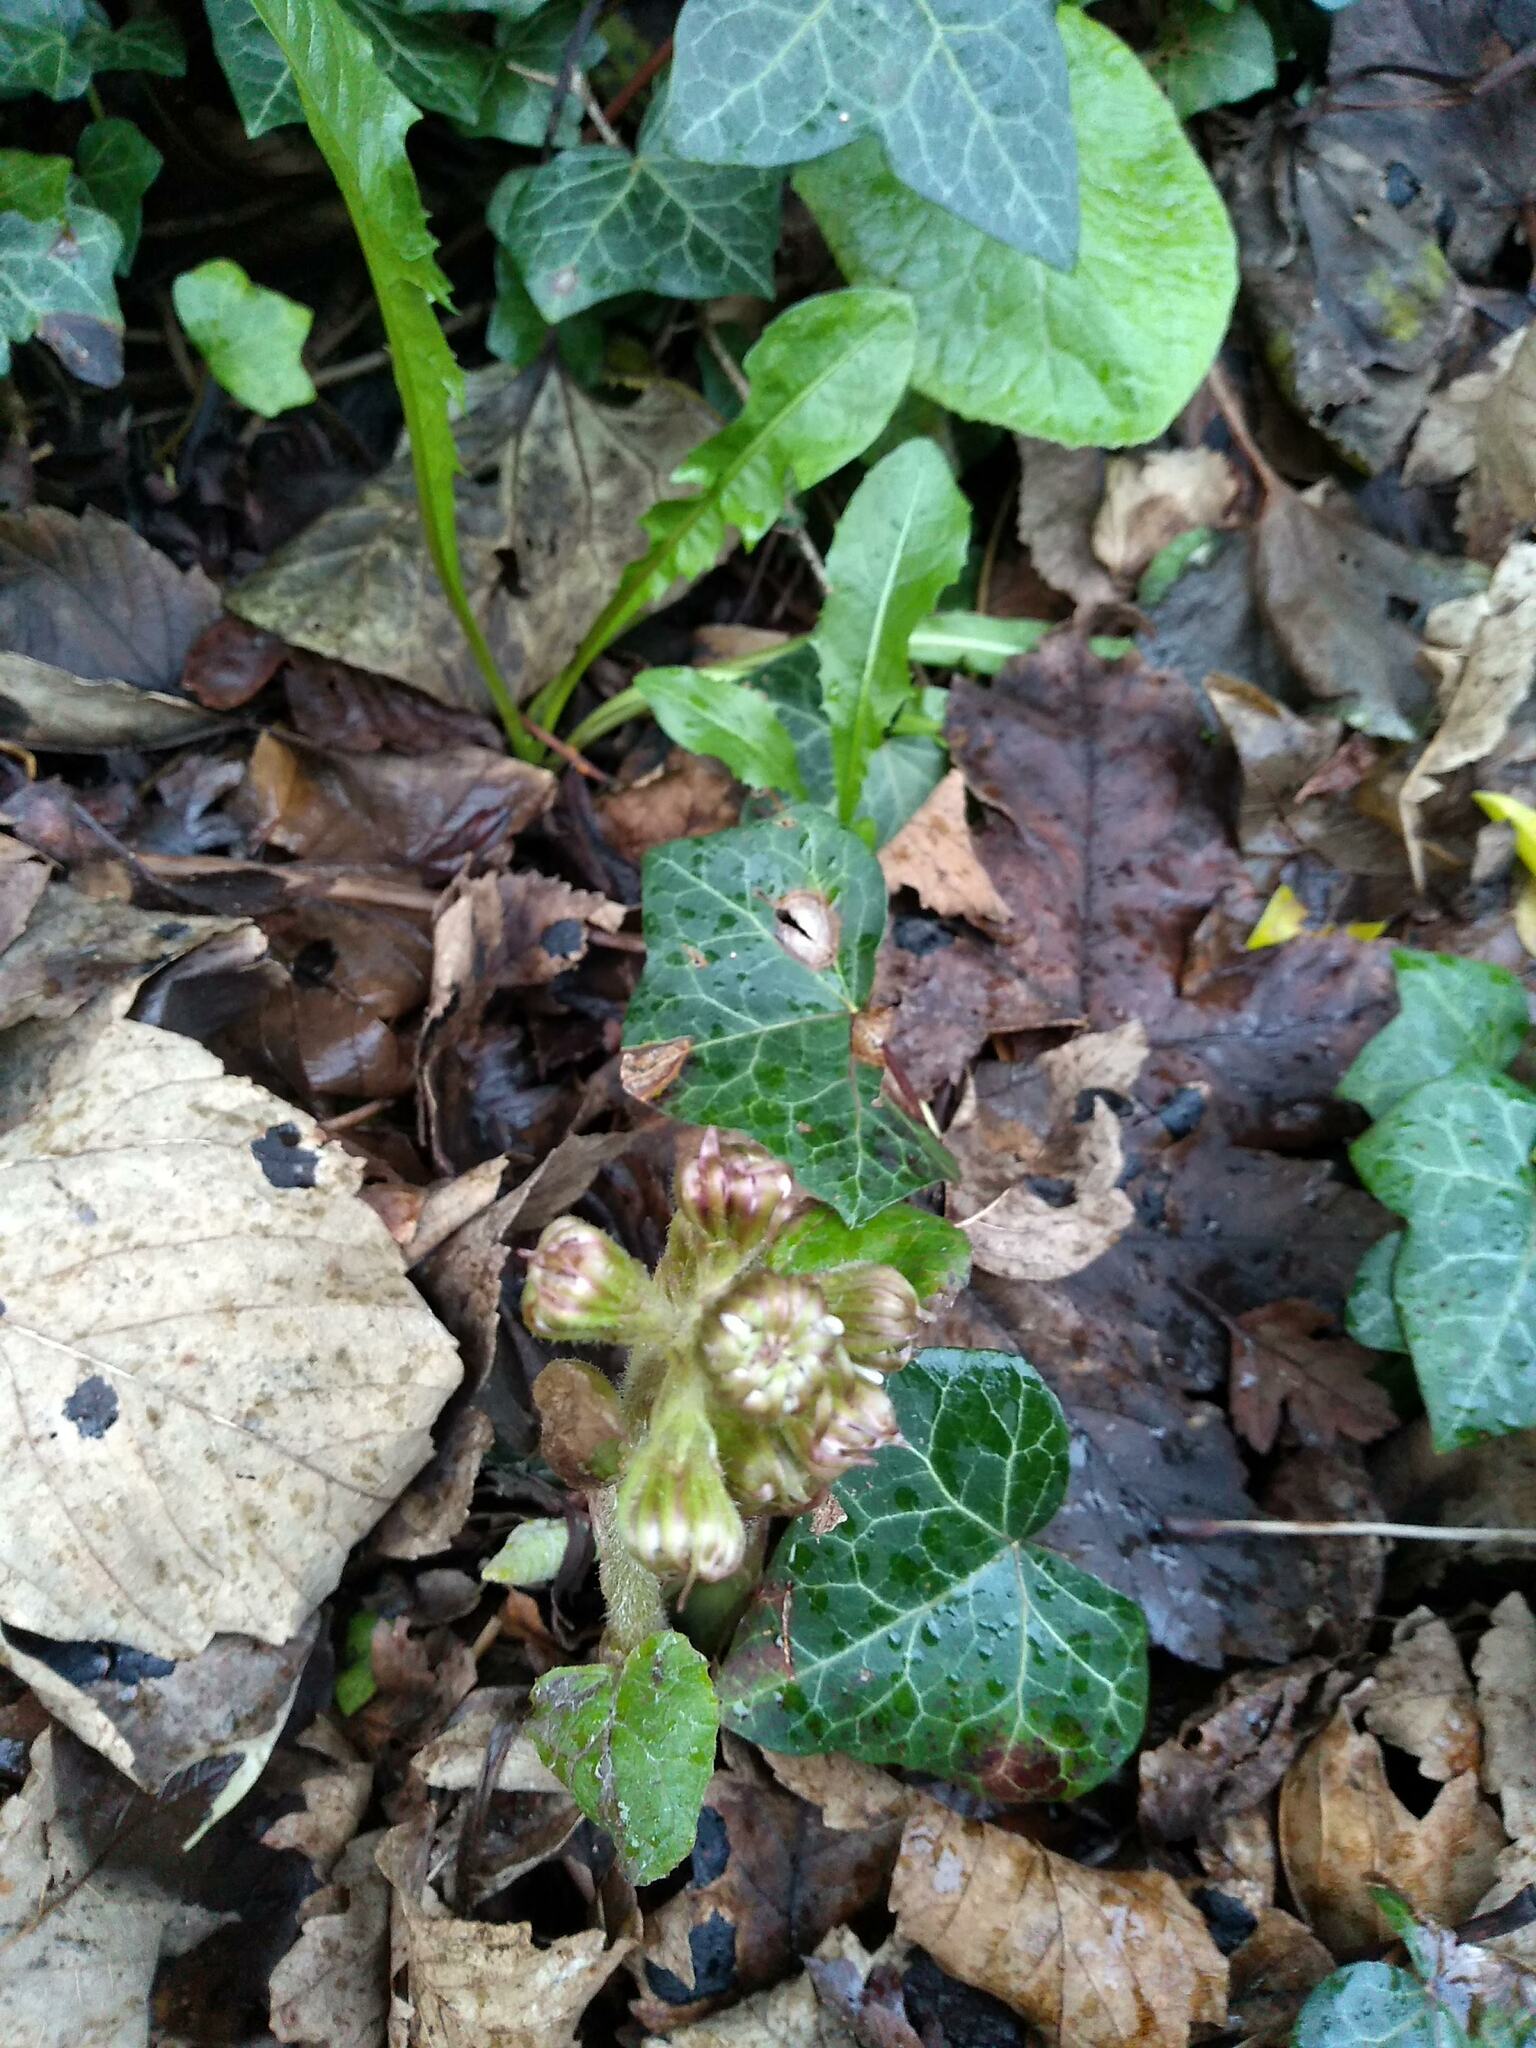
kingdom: Plantae
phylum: Tracheophyta
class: Magnoliopsida
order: Asterales
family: Asteraceae
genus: Petasites
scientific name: Petasites pyrenaicus
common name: Winter heliotrope
